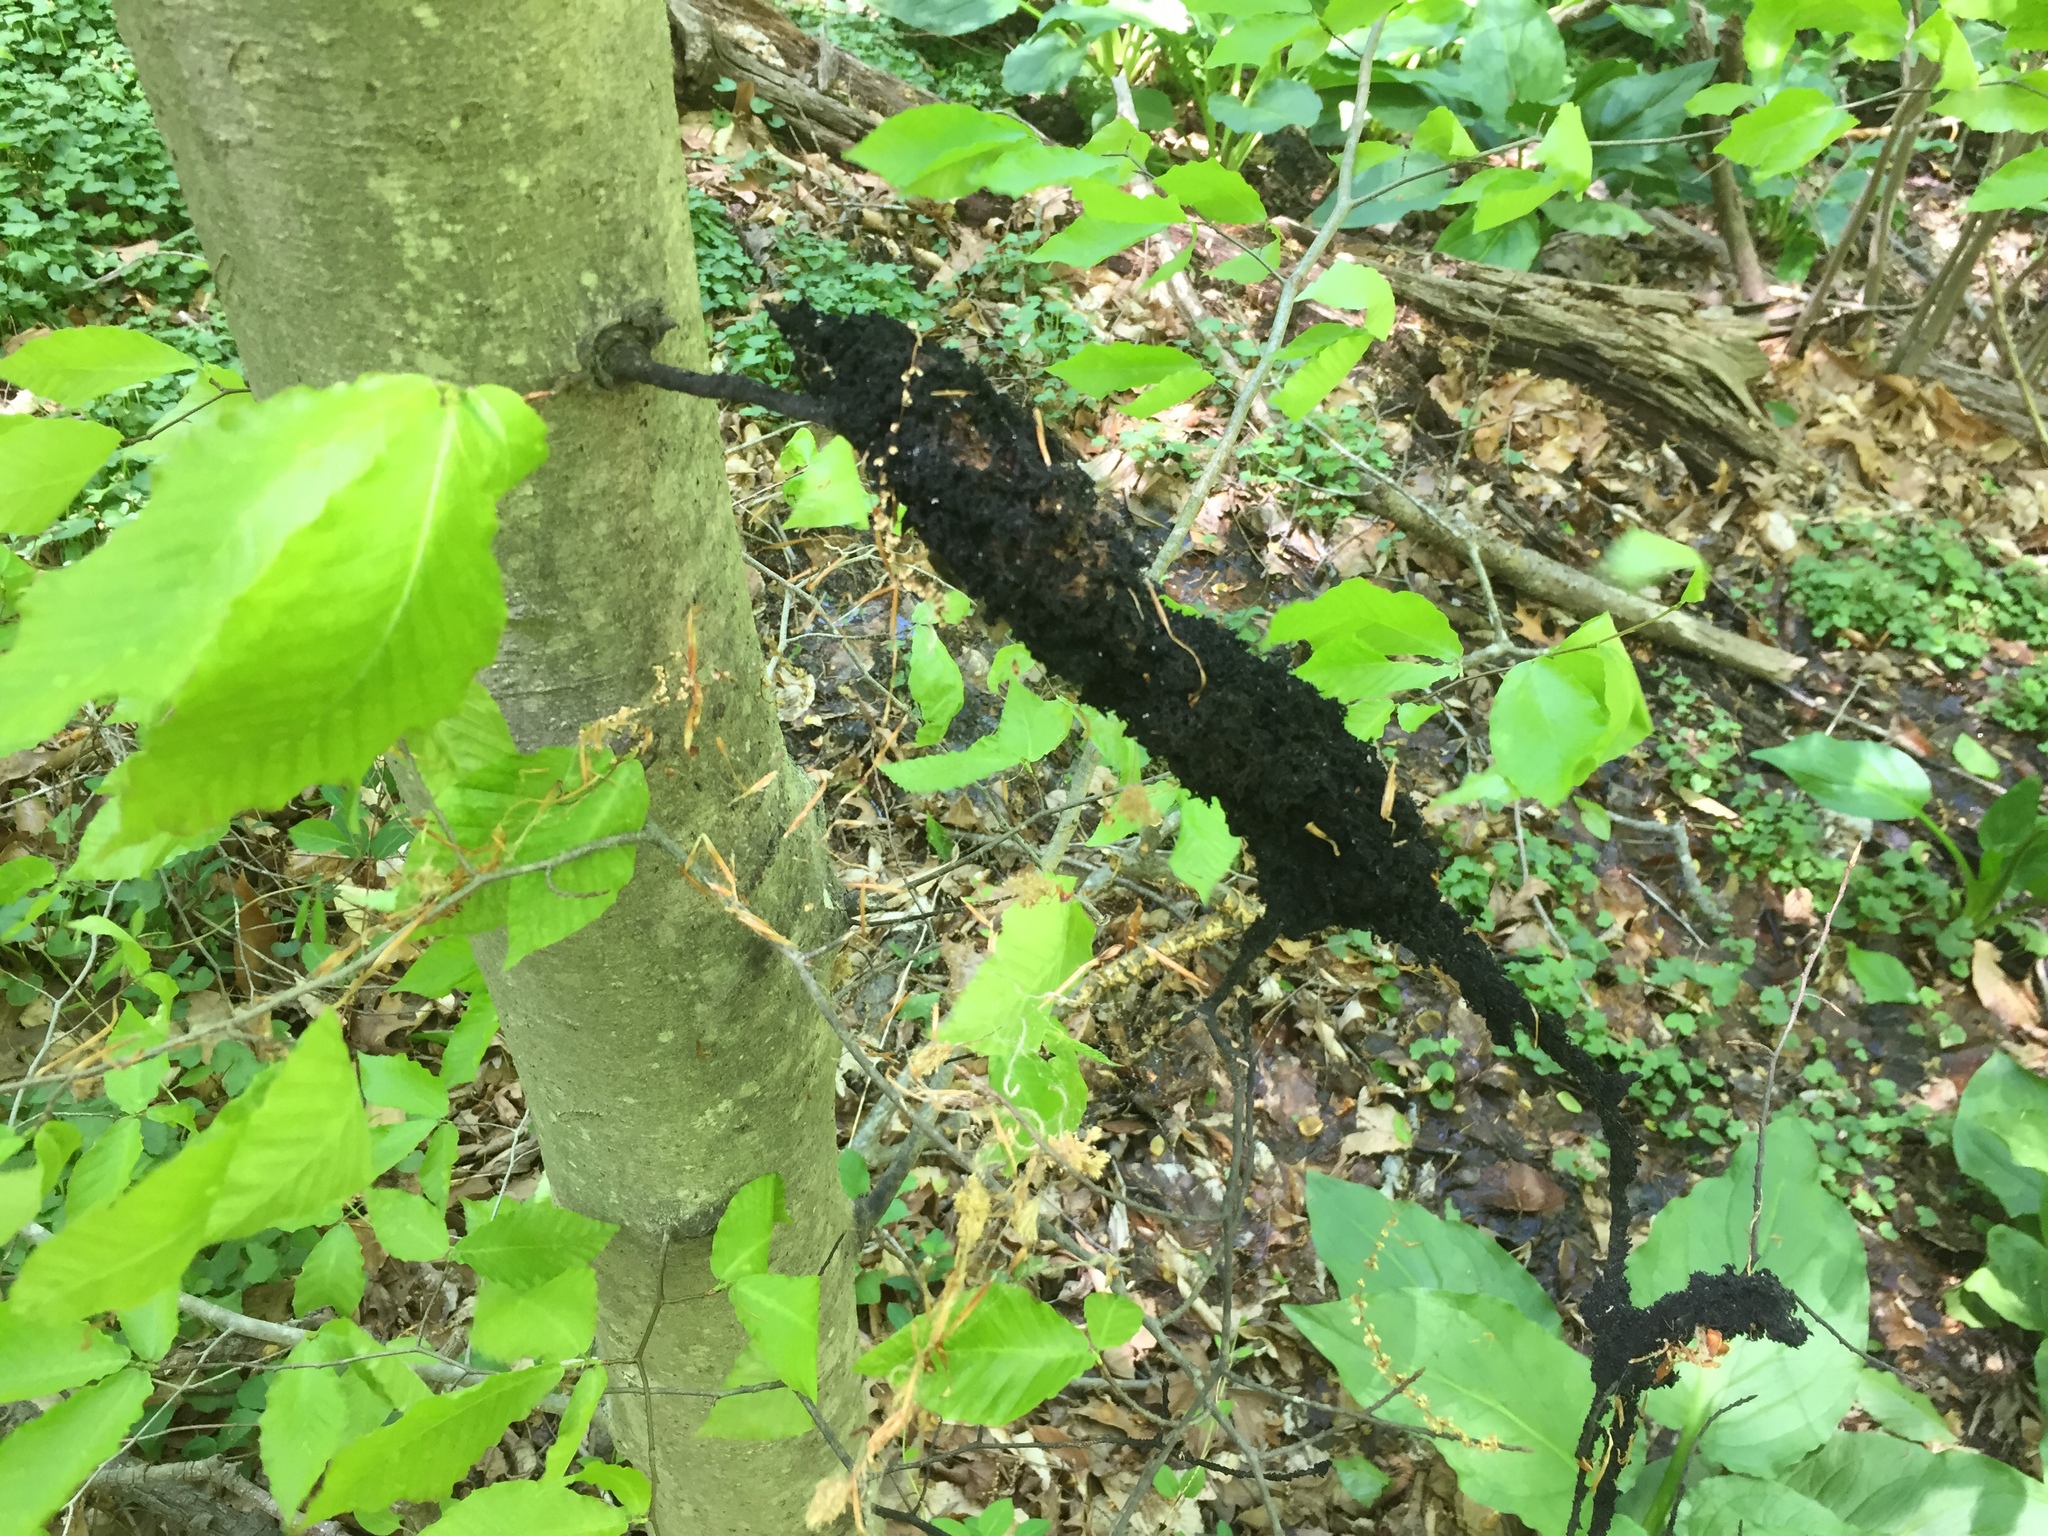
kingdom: Fungi
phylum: Ascomycota
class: Dothideomycetes
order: Capnodiales
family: Capnodiaceae
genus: Scorias
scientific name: Scorias spongiosa
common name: Black sooty mold
